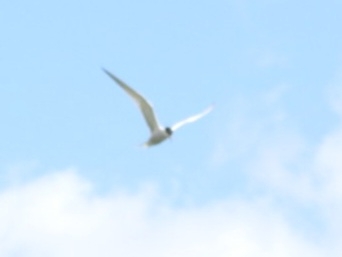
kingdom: Animalia
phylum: Chordata
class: Aves
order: Charadriiformes
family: Laridae
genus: Sterna
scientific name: Sterna hirundo
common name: Common tern
